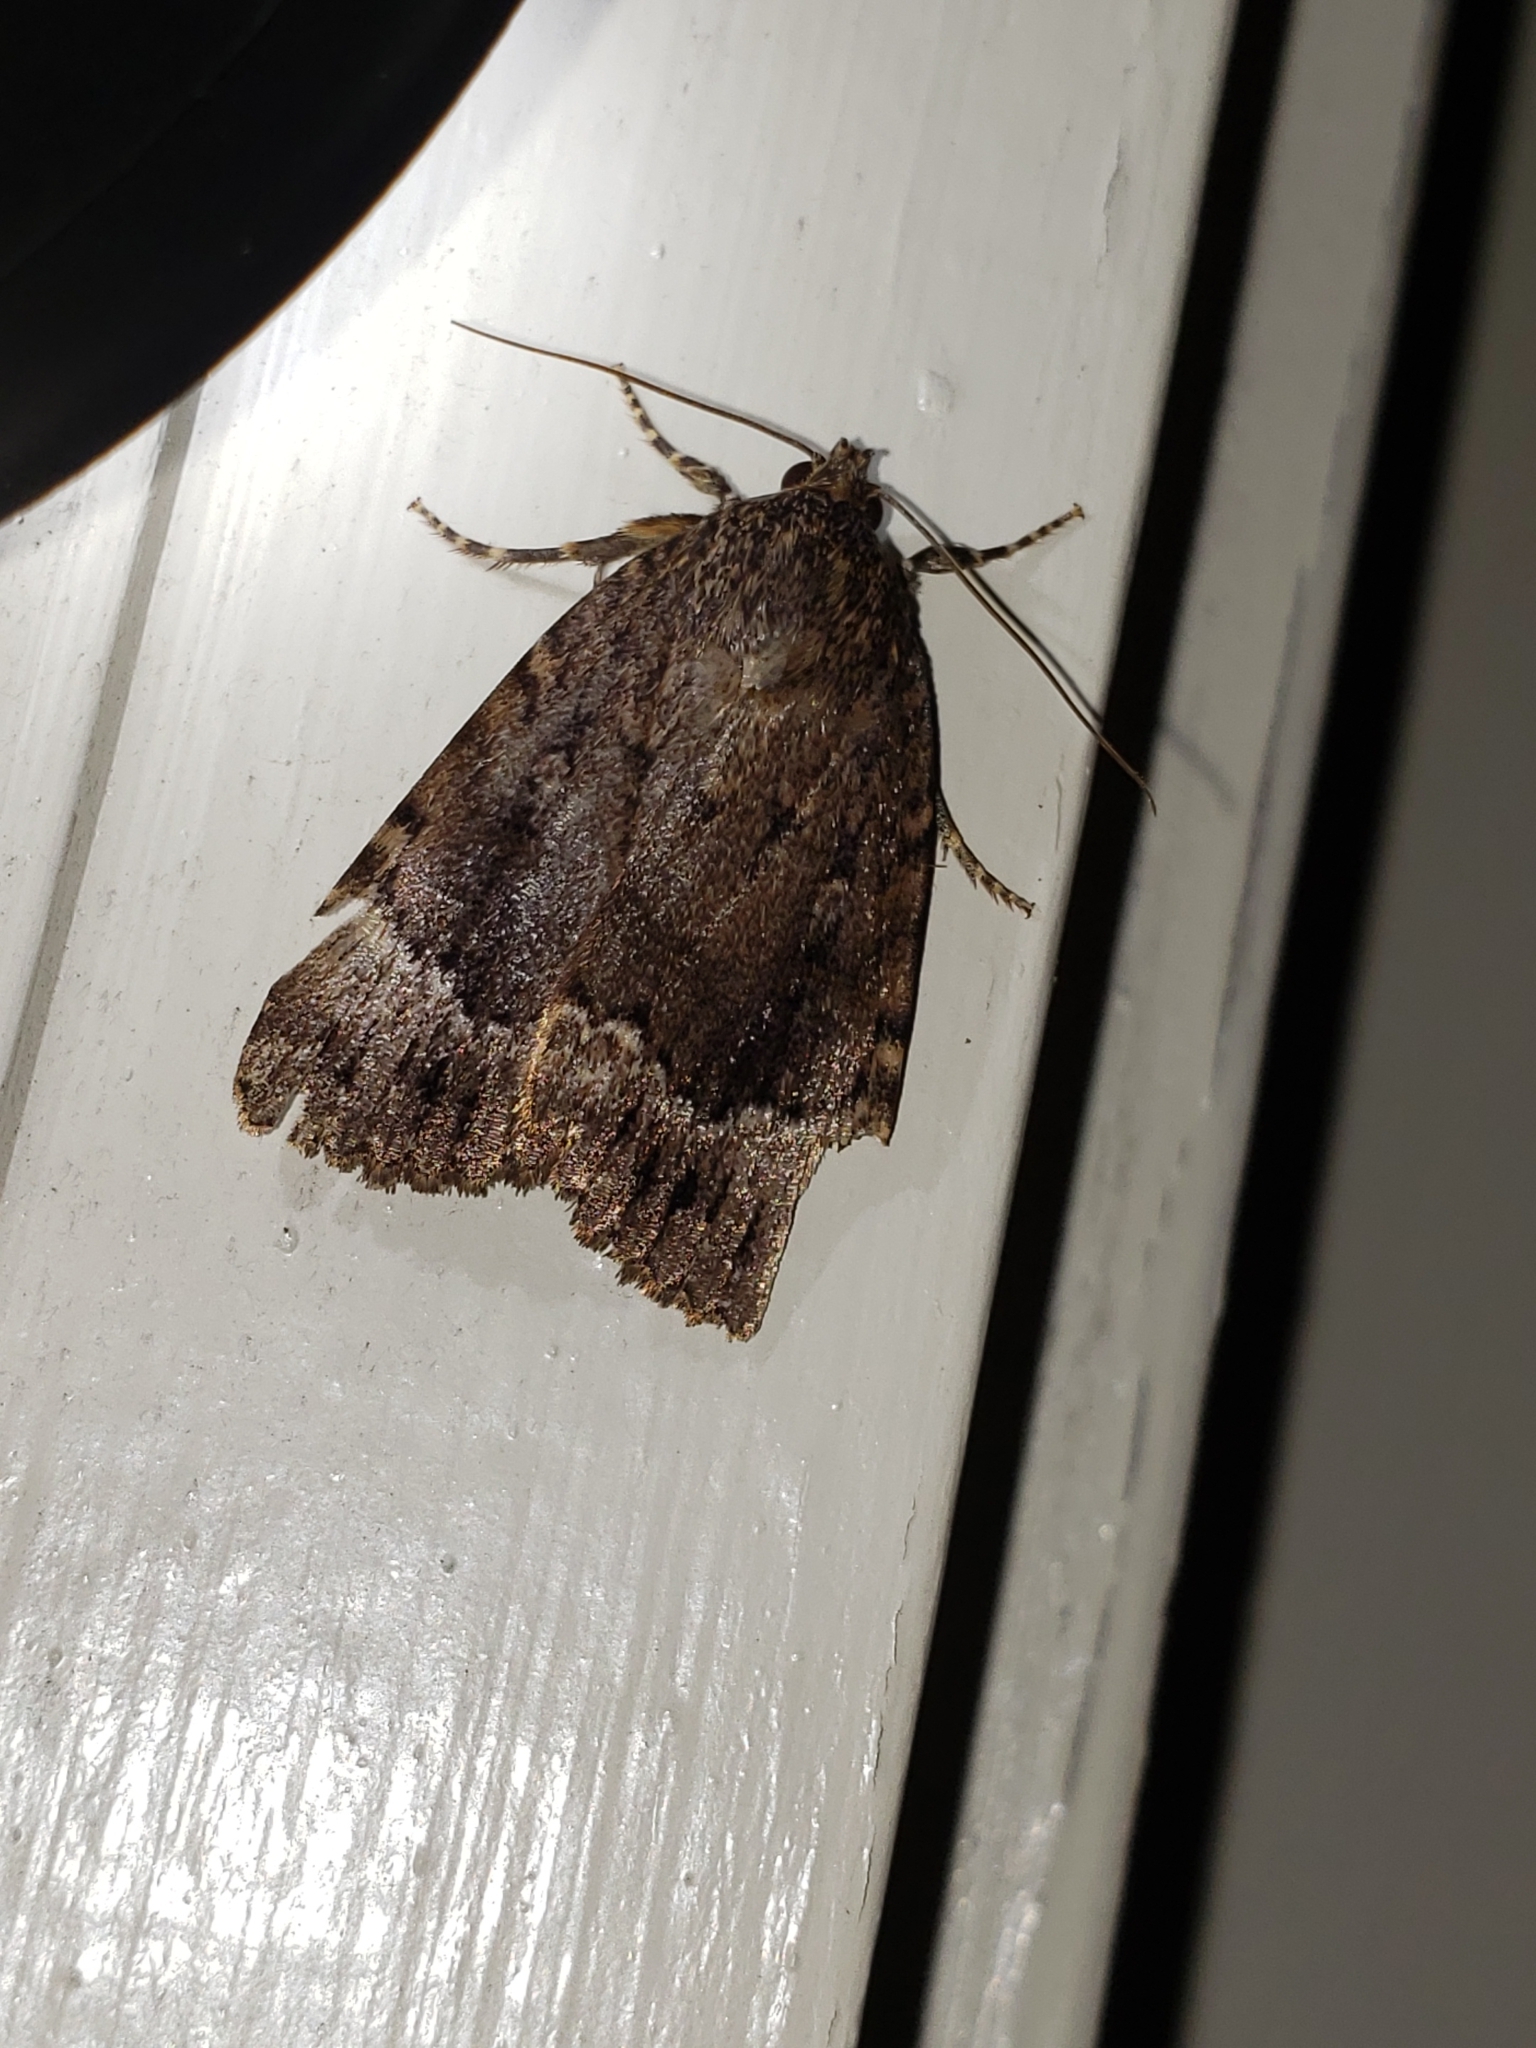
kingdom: Animalia
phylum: Arthropoda
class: Insecta
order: Lepidoptera
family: Noctuidae
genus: Amphipyra
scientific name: Amphipyra pyramidoides
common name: American copper underwing
